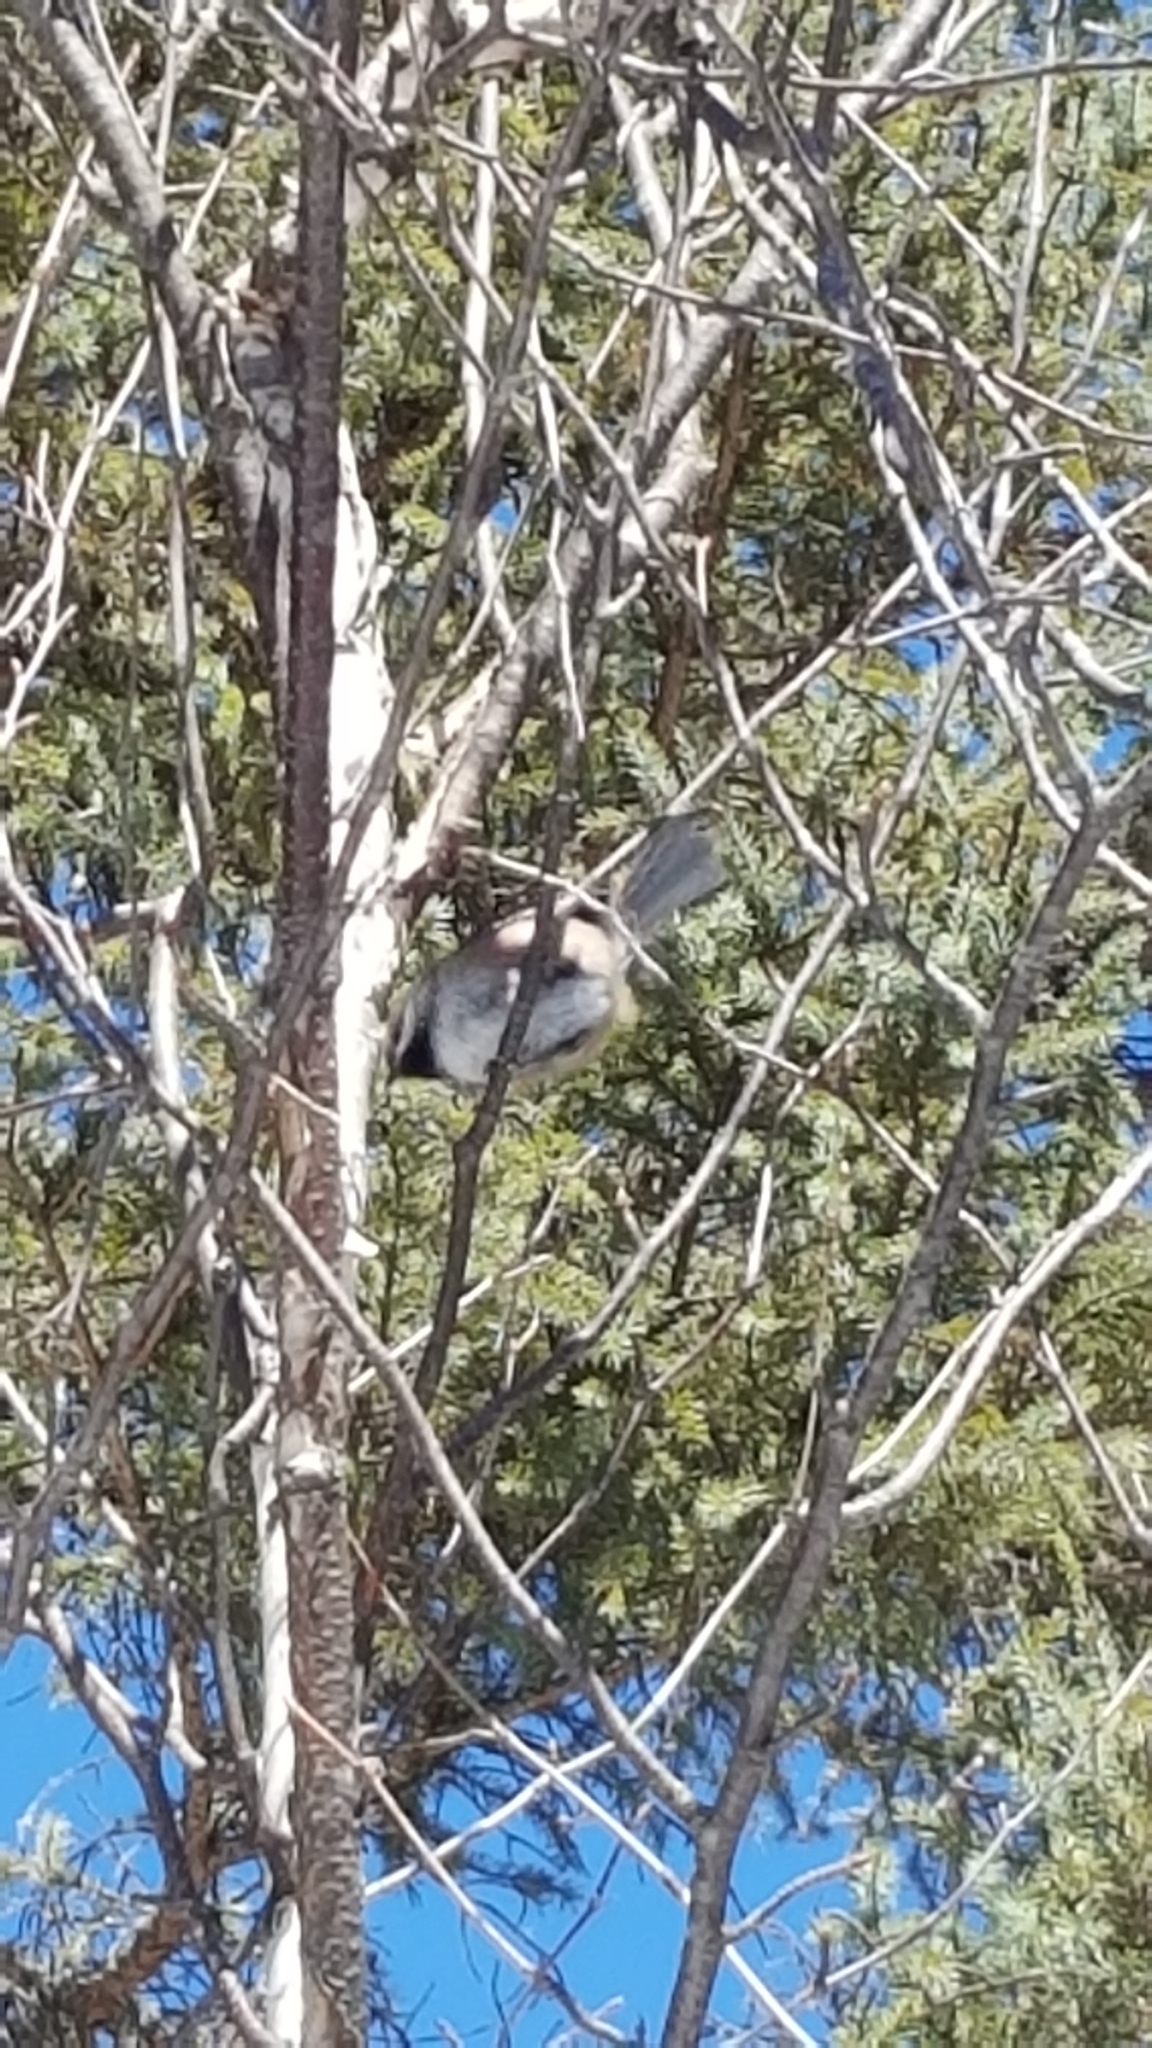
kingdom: Animalia
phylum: Chordata
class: Aves
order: Passeriformes
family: Paridae
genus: Poecile
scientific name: Poecile hudsonicus
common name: Boreal chickadee
